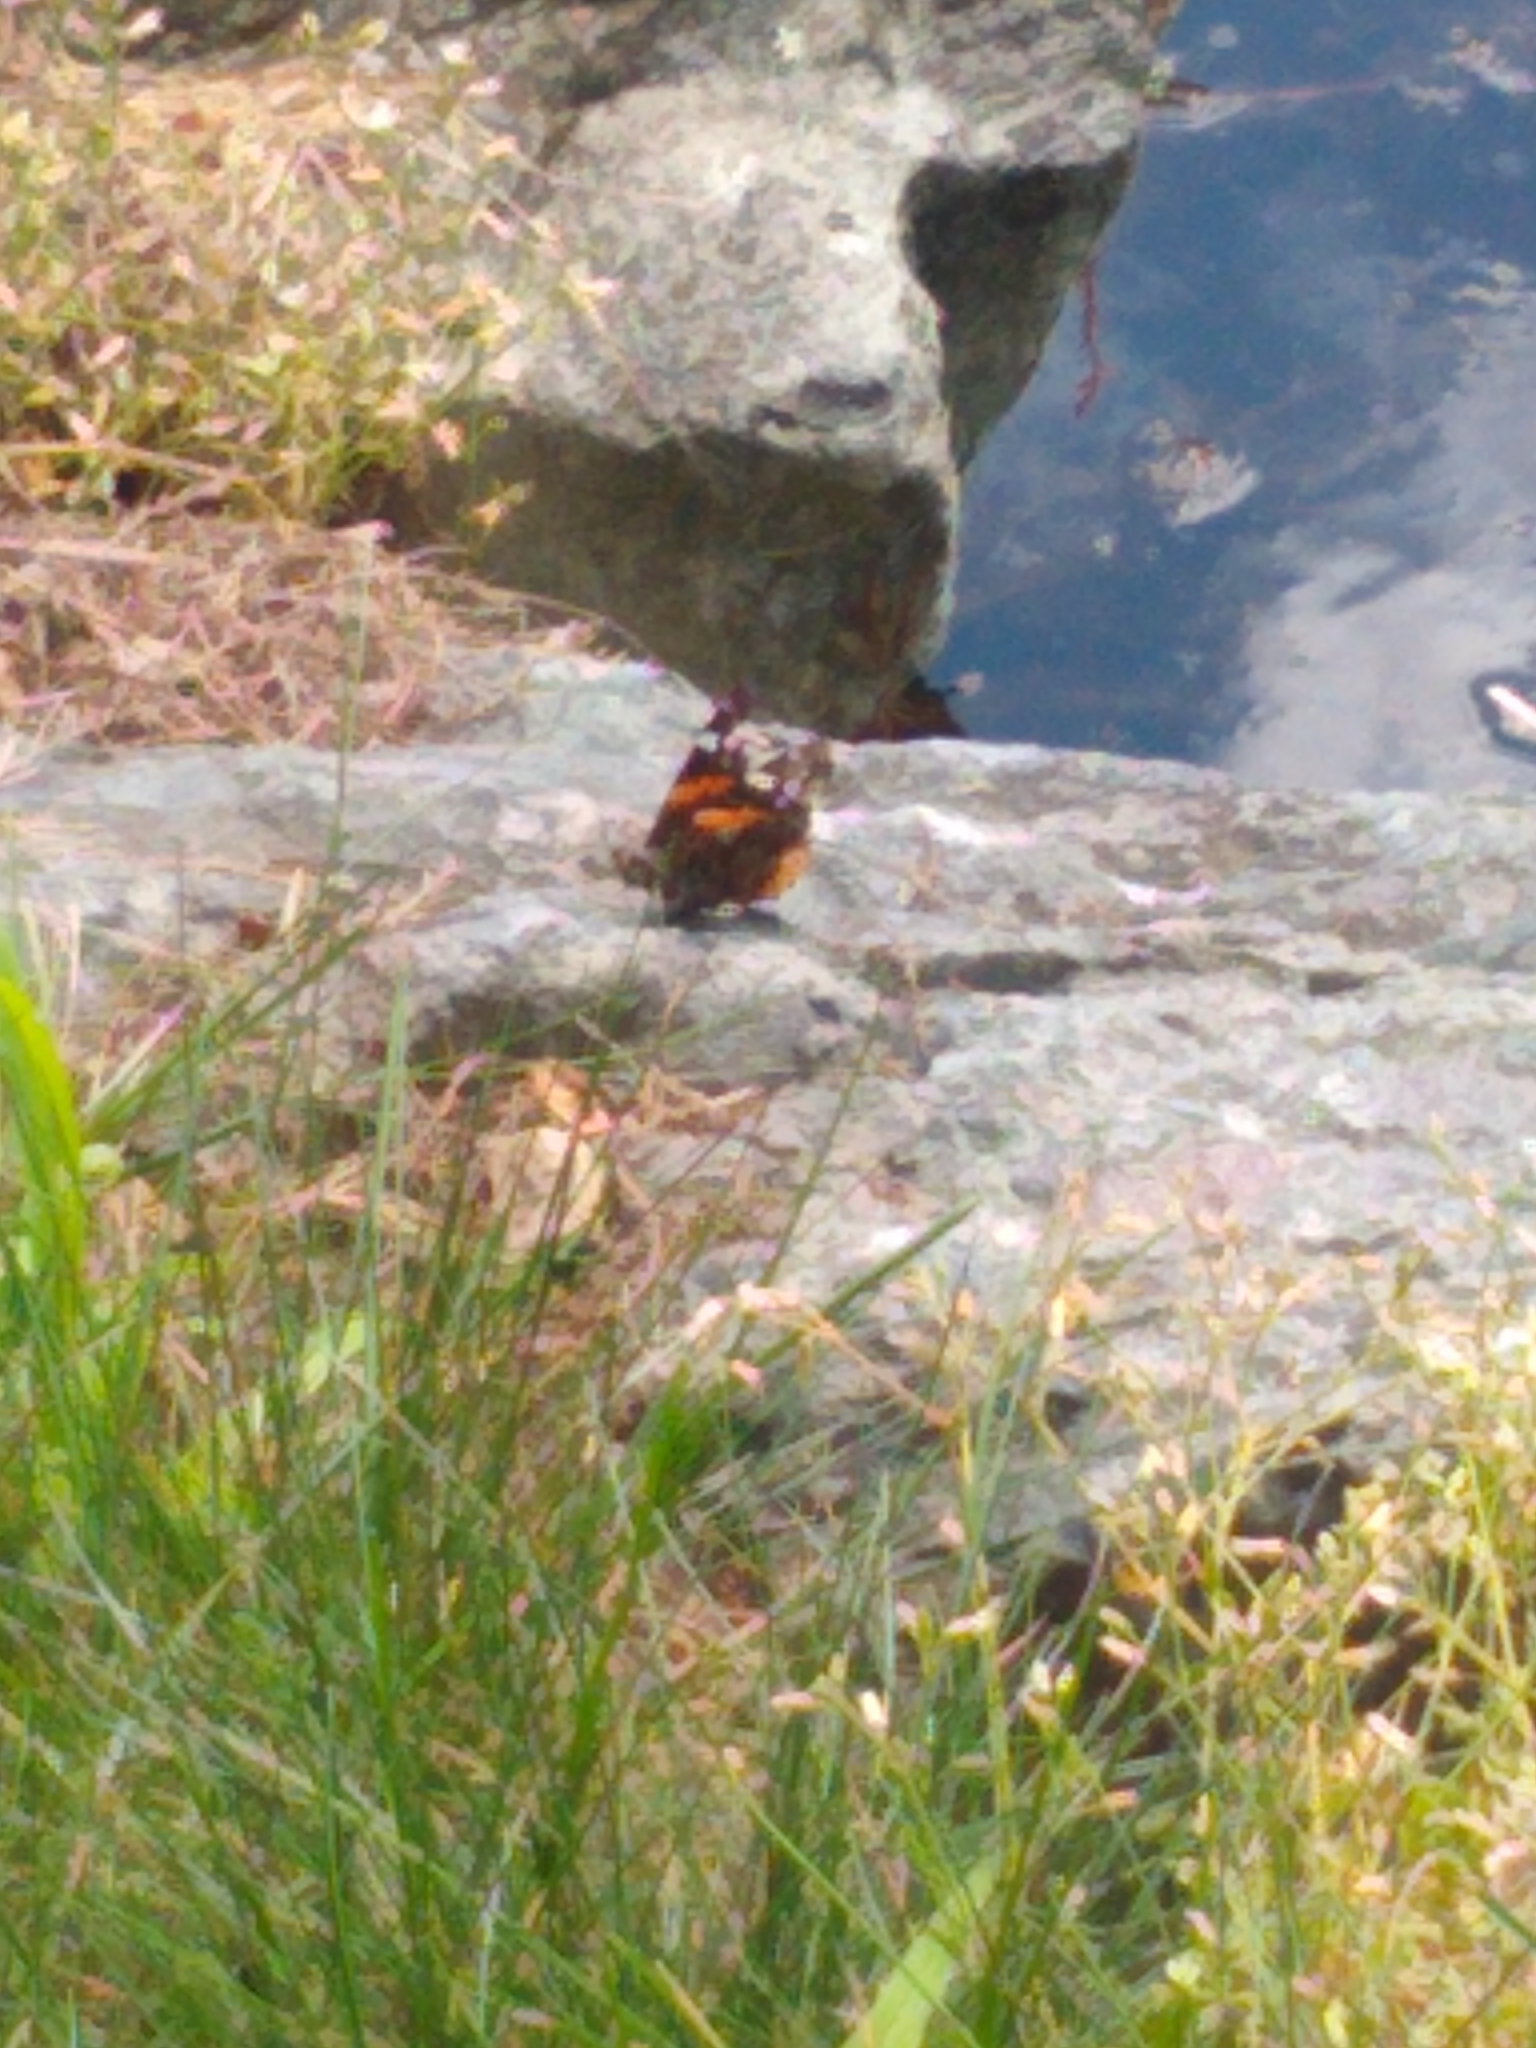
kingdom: Animalia
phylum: Arthropoda
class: Insecta
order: Lepidoptera
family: Nymphalidae
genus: Vanessa
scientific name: Vanessa atalanta
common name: Red admiral
